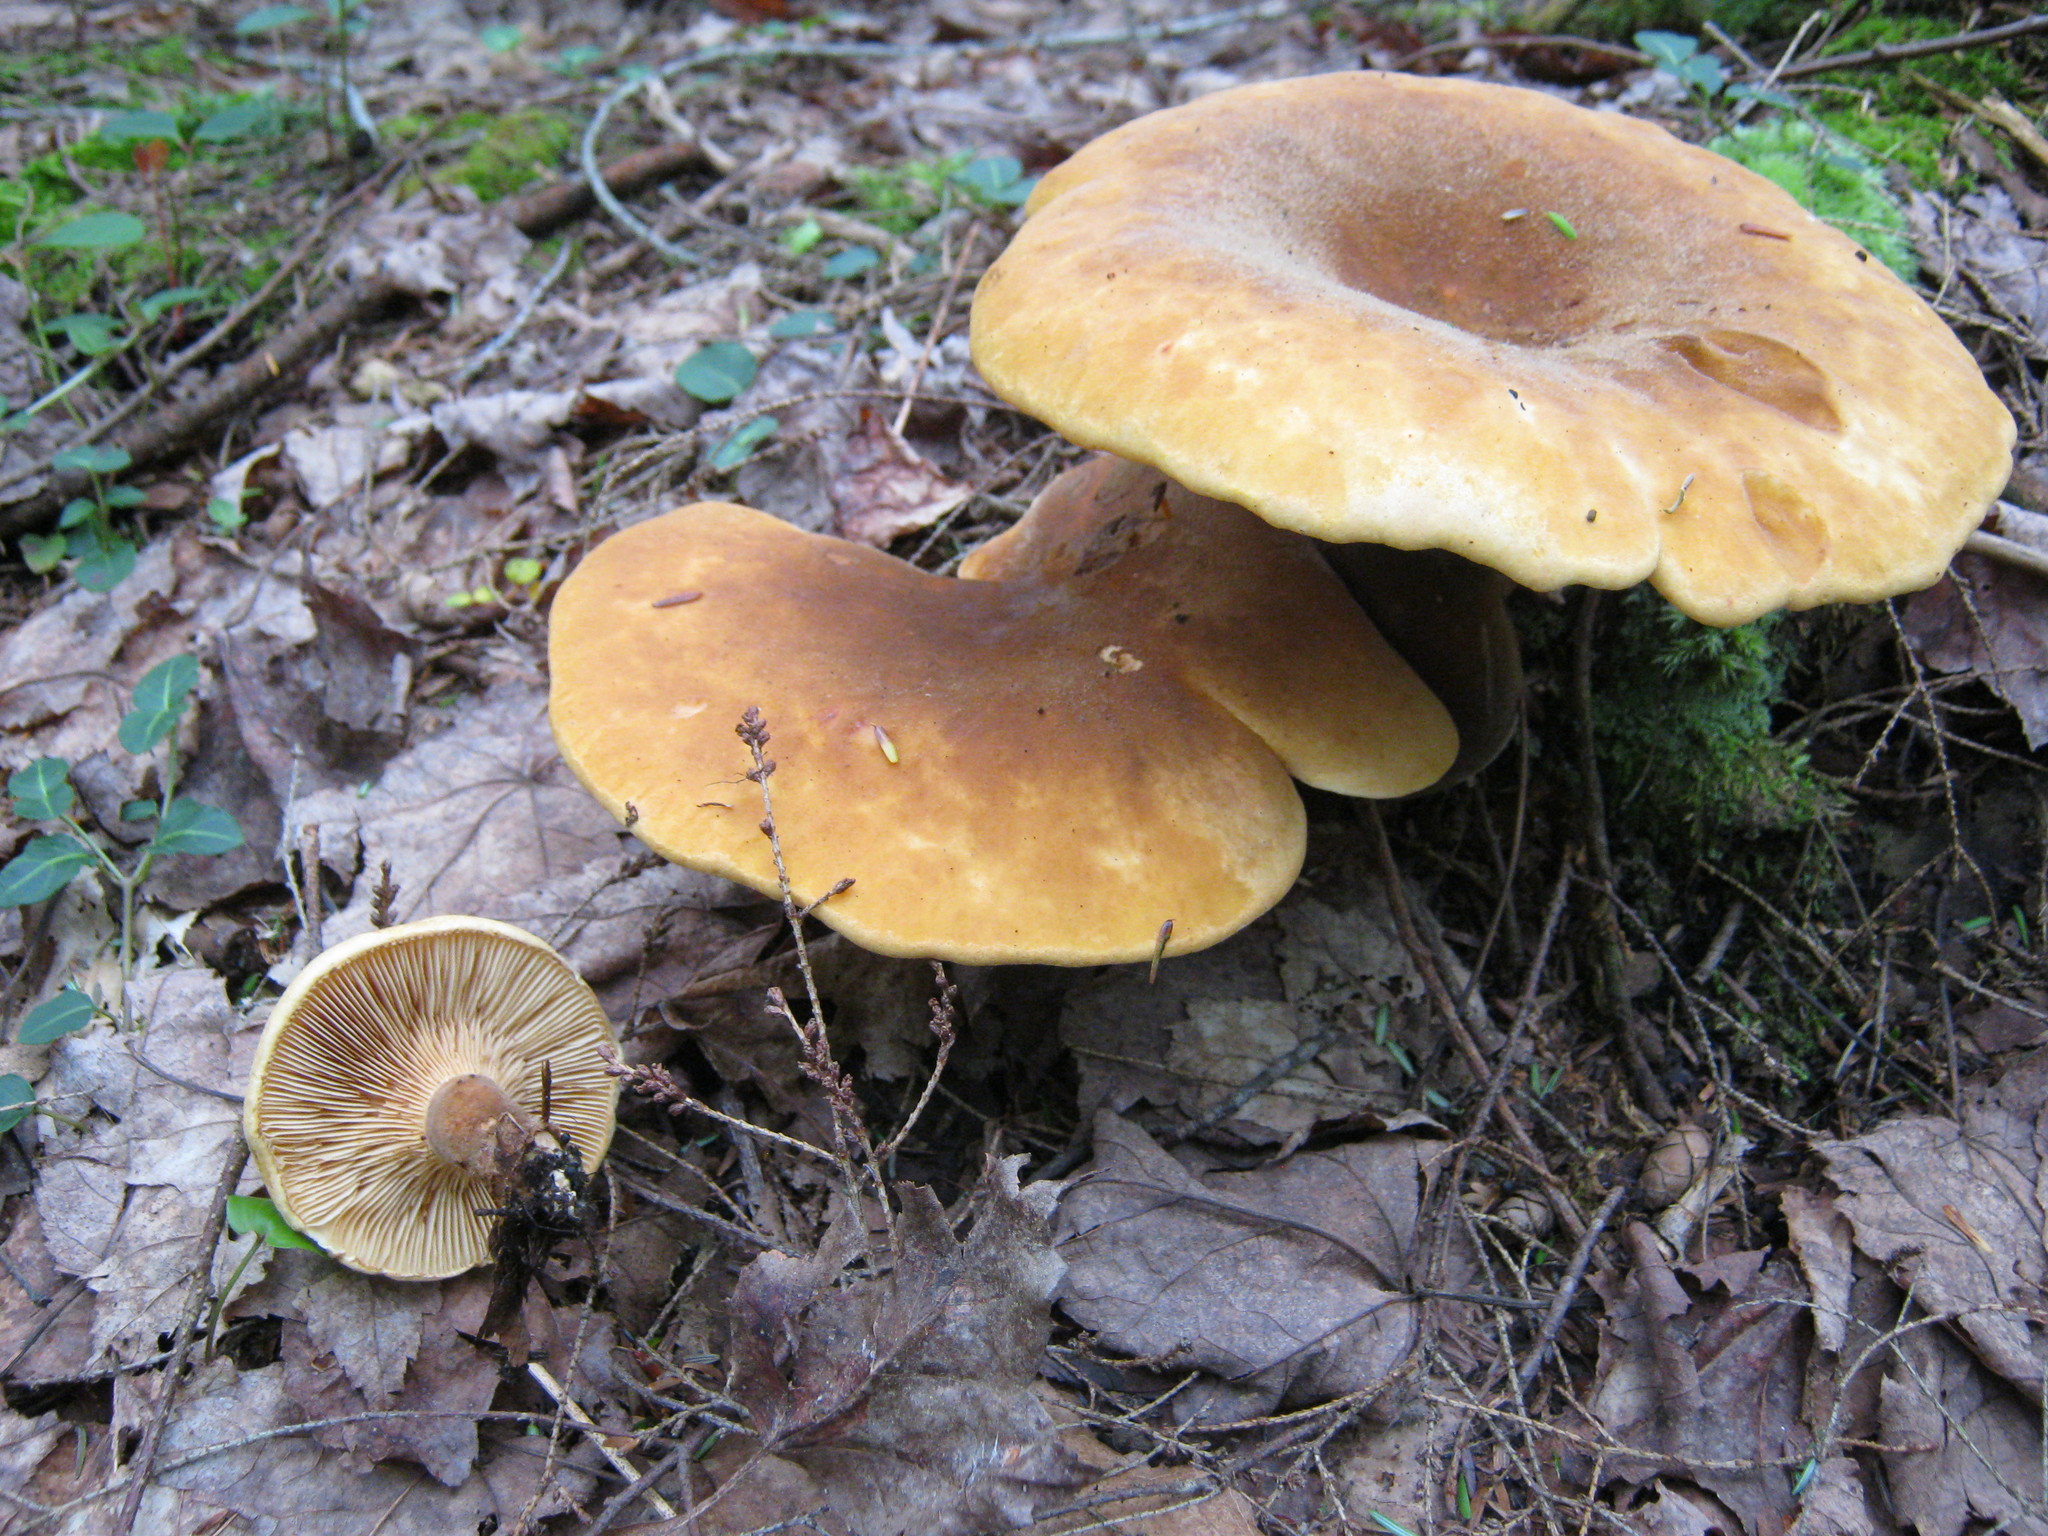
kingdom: Fungi
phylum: Basidiomycota
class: Agaricomycetes
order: Boletales
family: Tapinellaceae
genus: Tapinella
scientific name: Tapinella atrotomentosa
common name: Velvet rollrim
